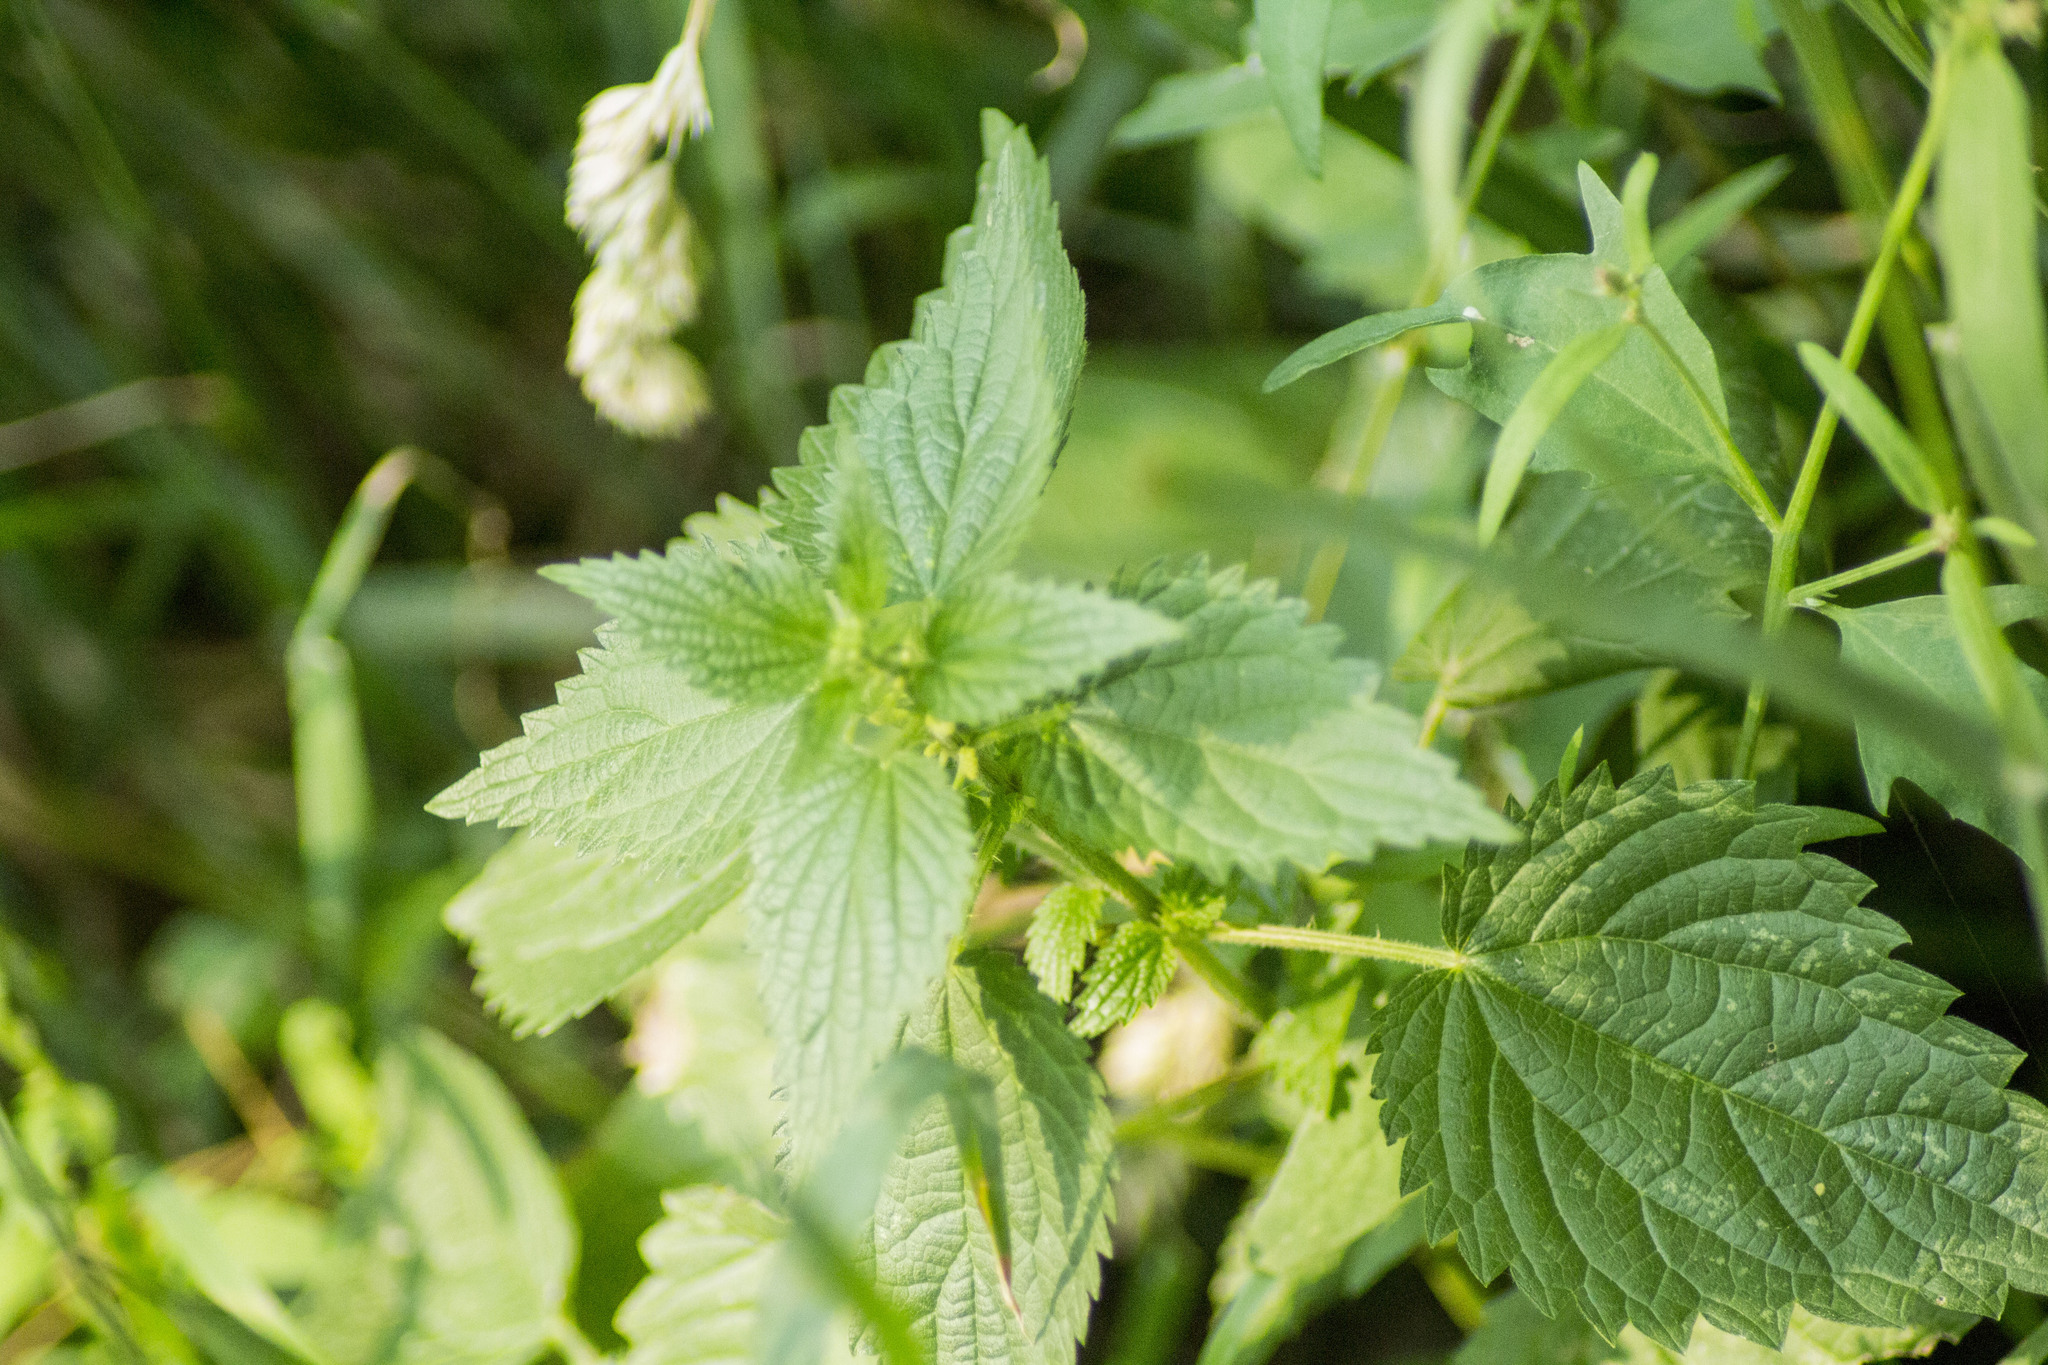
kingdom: Plantae
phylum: Tracheophyta
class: Magnoliopsida
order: Rosales
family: Urticaceae
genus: Urtica
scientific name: Urtica dioica
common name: Common nettle
